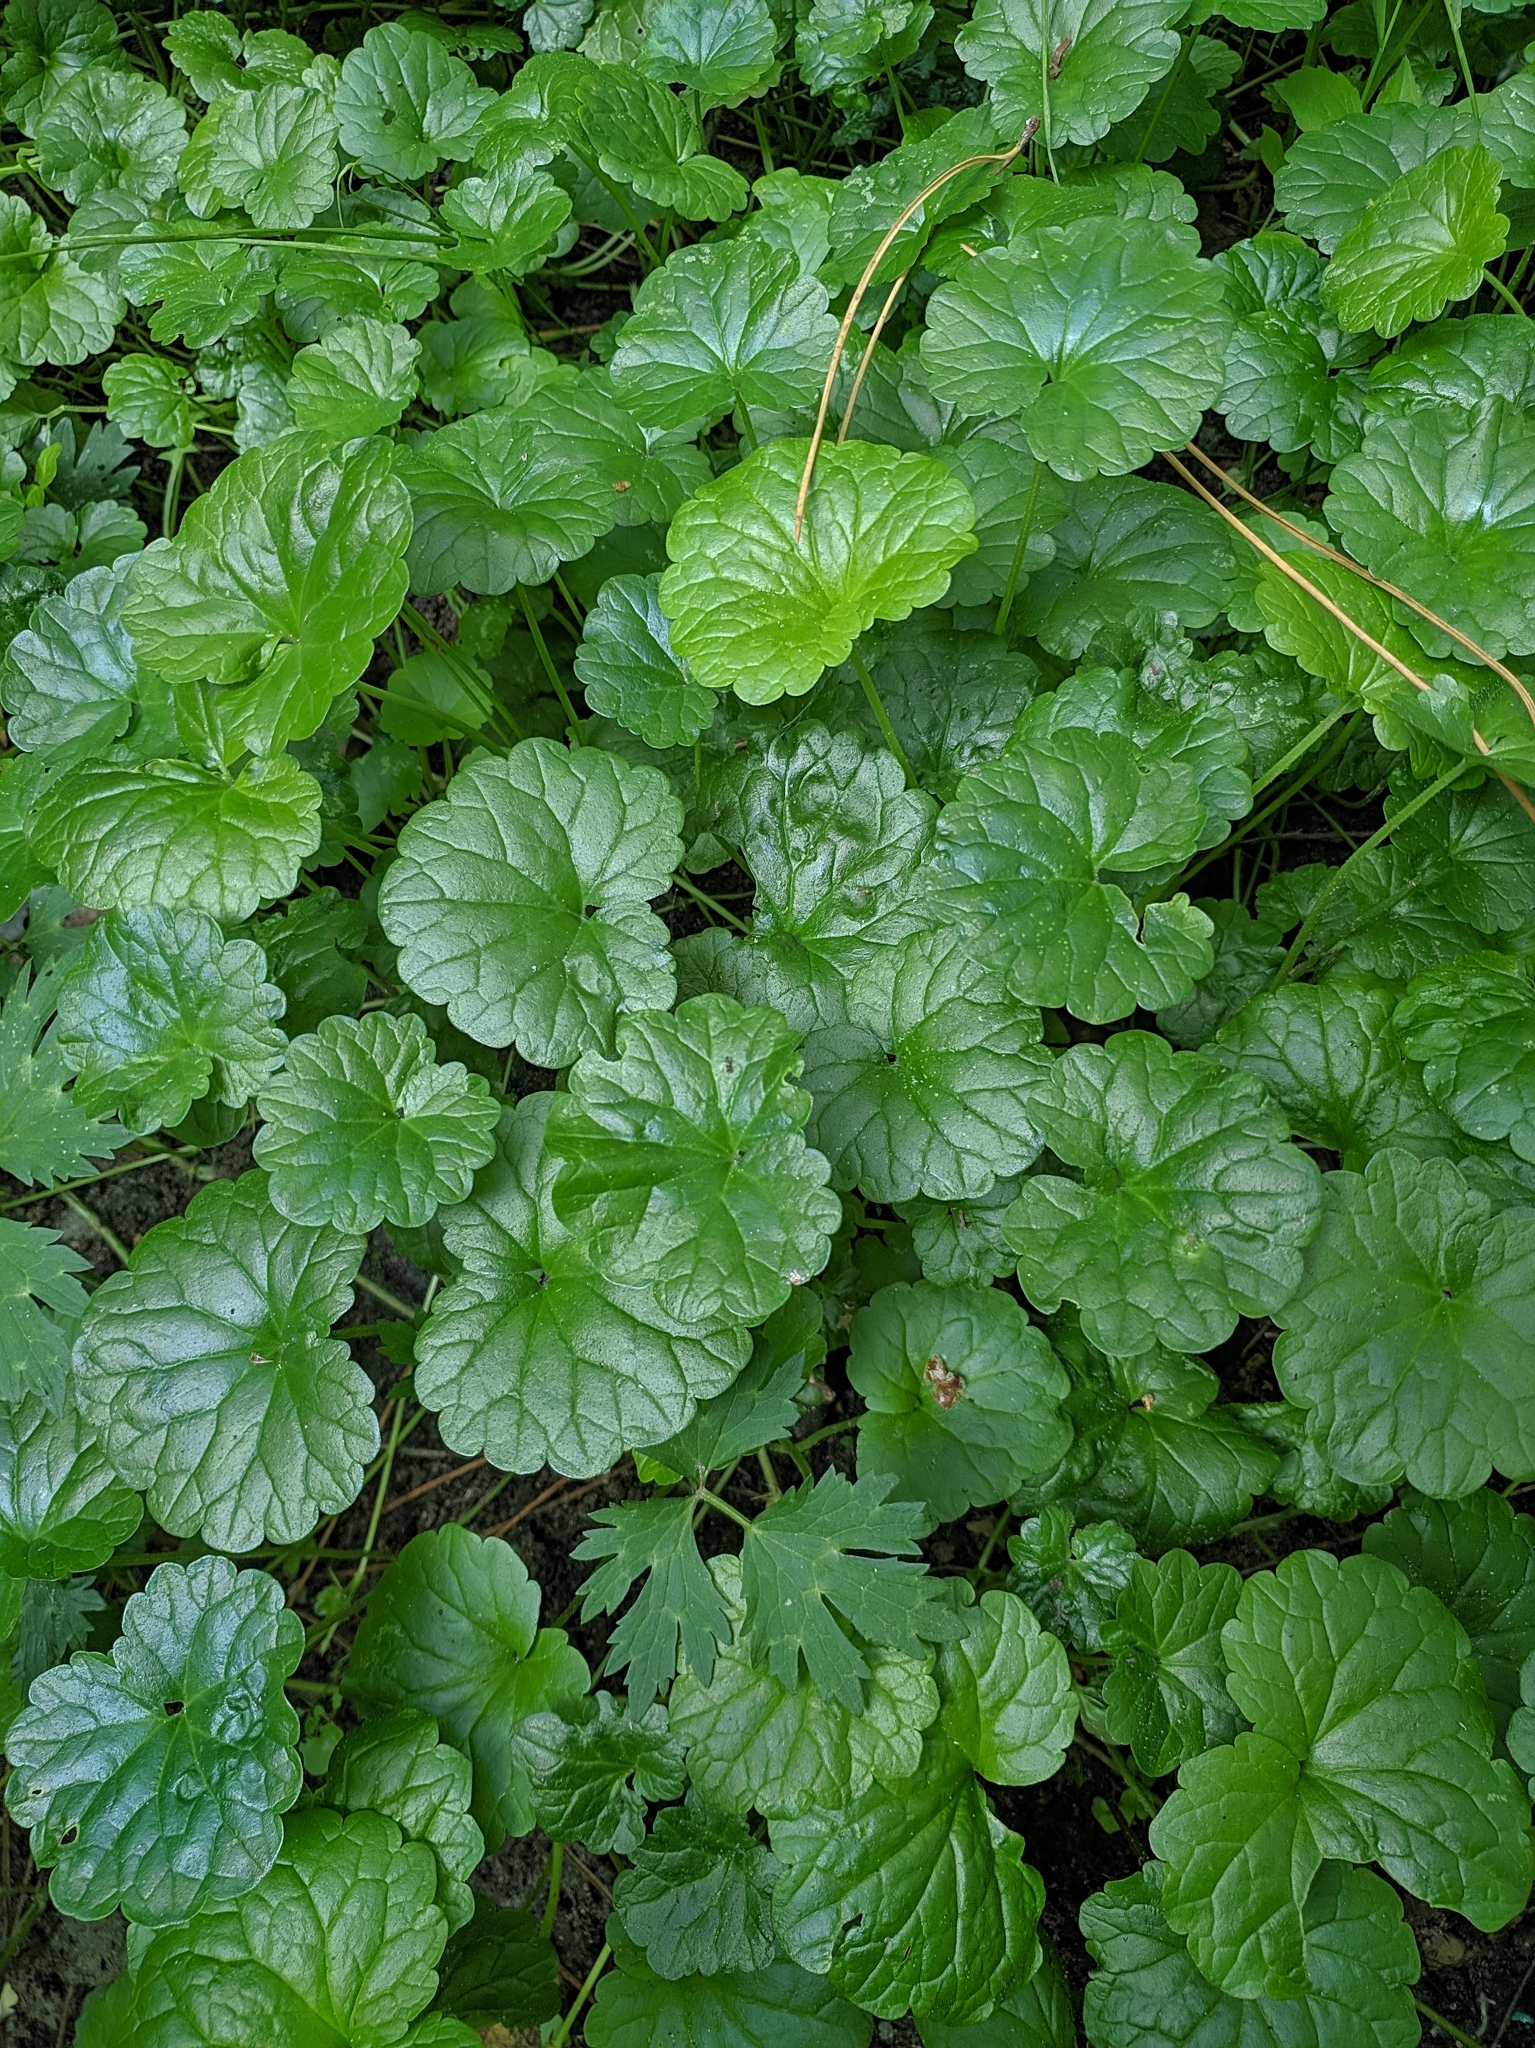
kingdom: Plantae
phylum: Tracheophyta
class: Magnoliopsida
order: Lamiales
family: Lamiaceae
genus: Glechoma
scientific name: Glechoma hederacea
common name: Ground ivy
